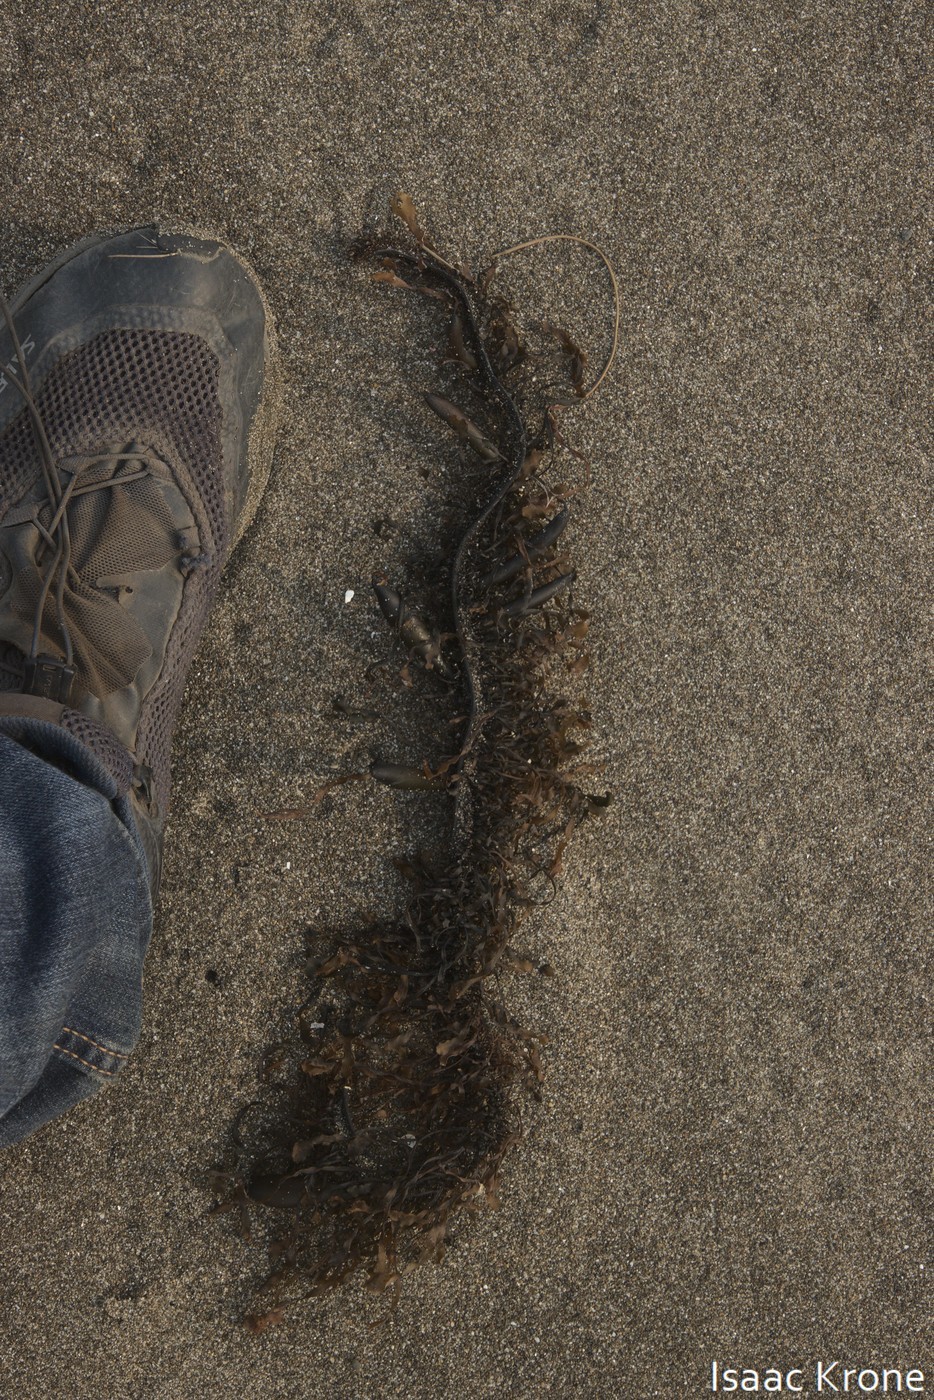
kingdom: Chromista
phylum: Ochrophyta
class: Phaeophyceae
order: Laminariales
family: Lessoniaceae
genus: Egregia
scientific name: Egregia menziesii
